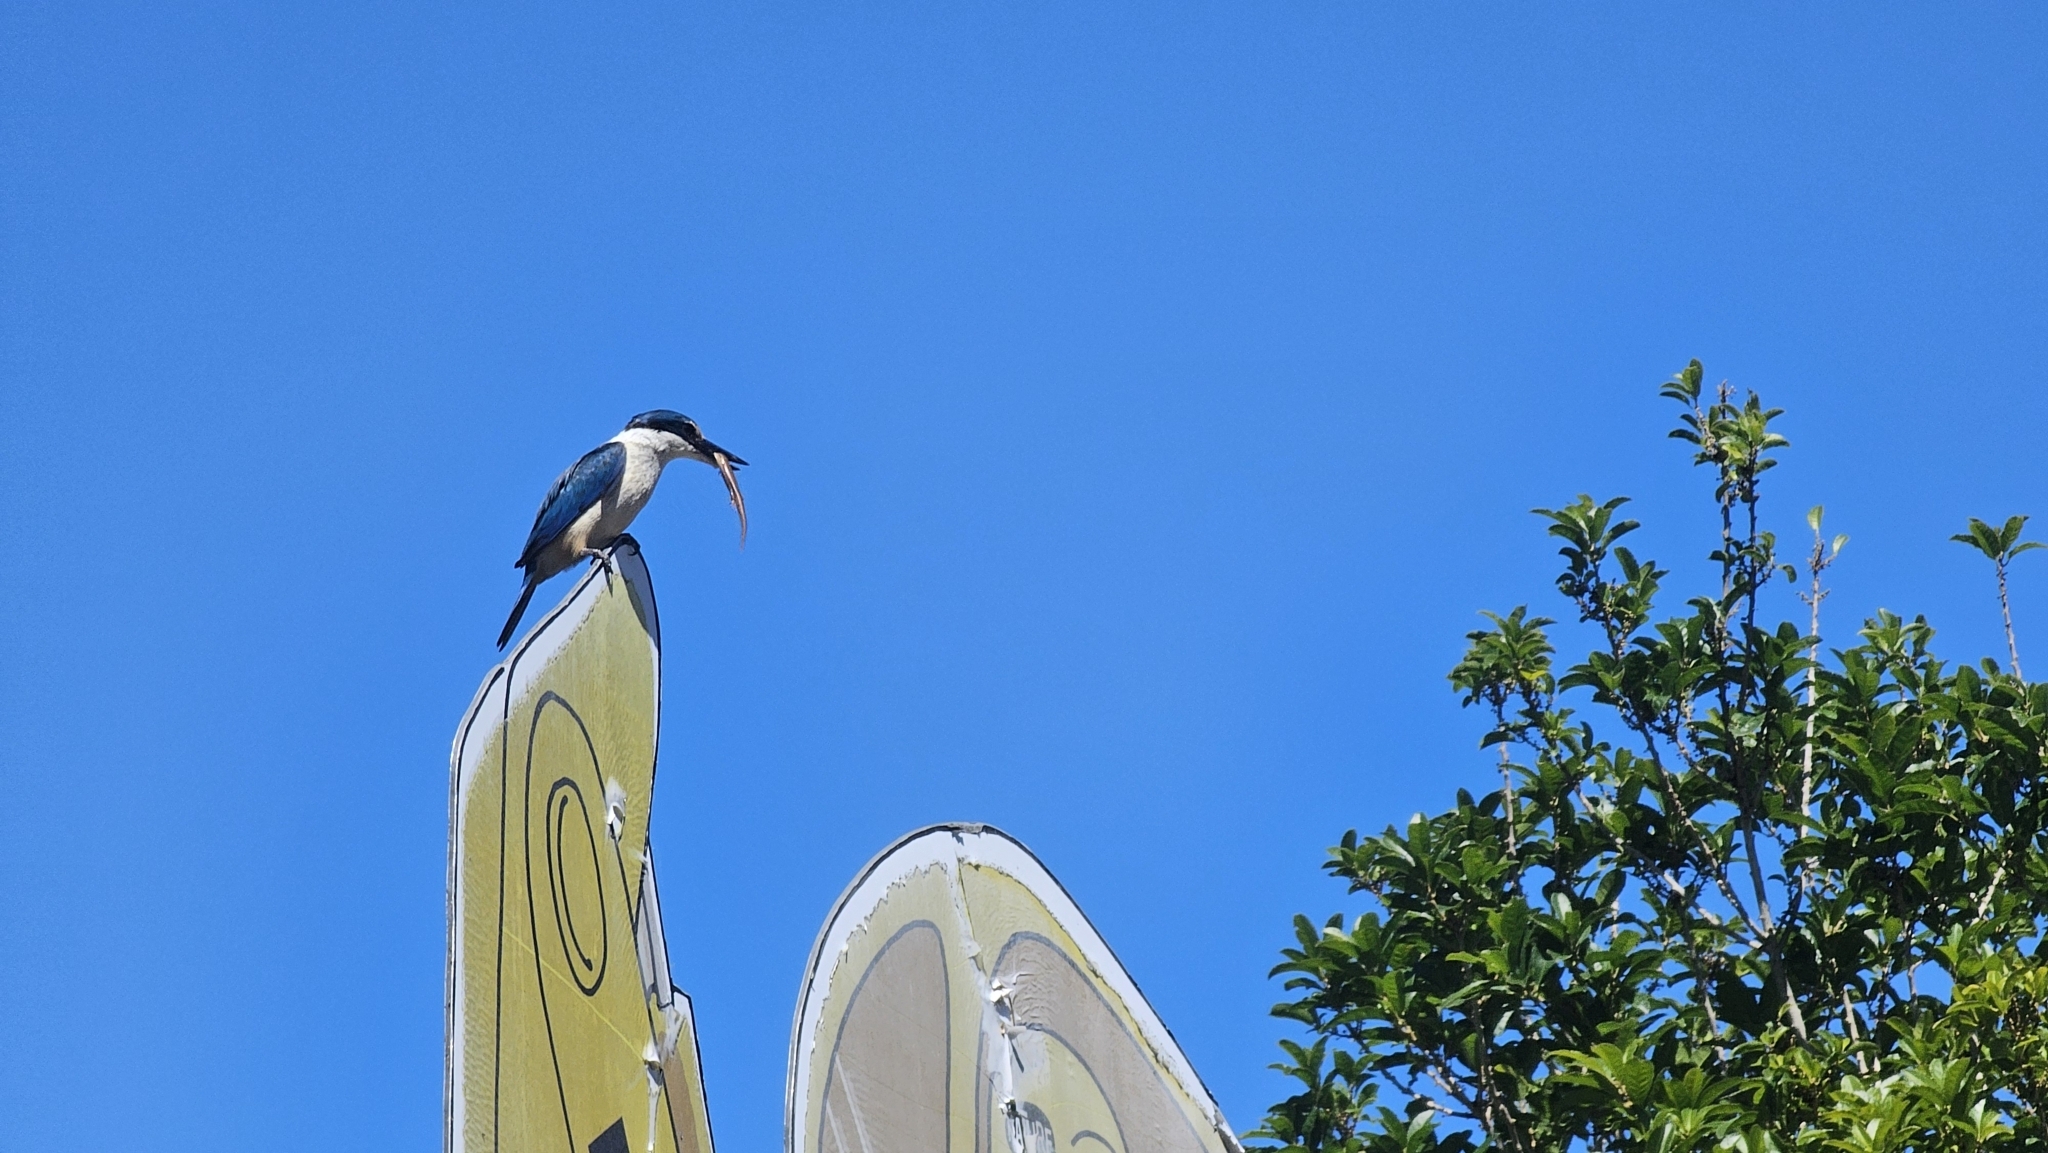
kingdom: Animalia
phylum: Chordata
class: Aves
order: Coraciiformes
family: Alcedinidae
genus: Todiramphus
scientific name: Todiramphus sanctus
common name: Sacred kingfisher
